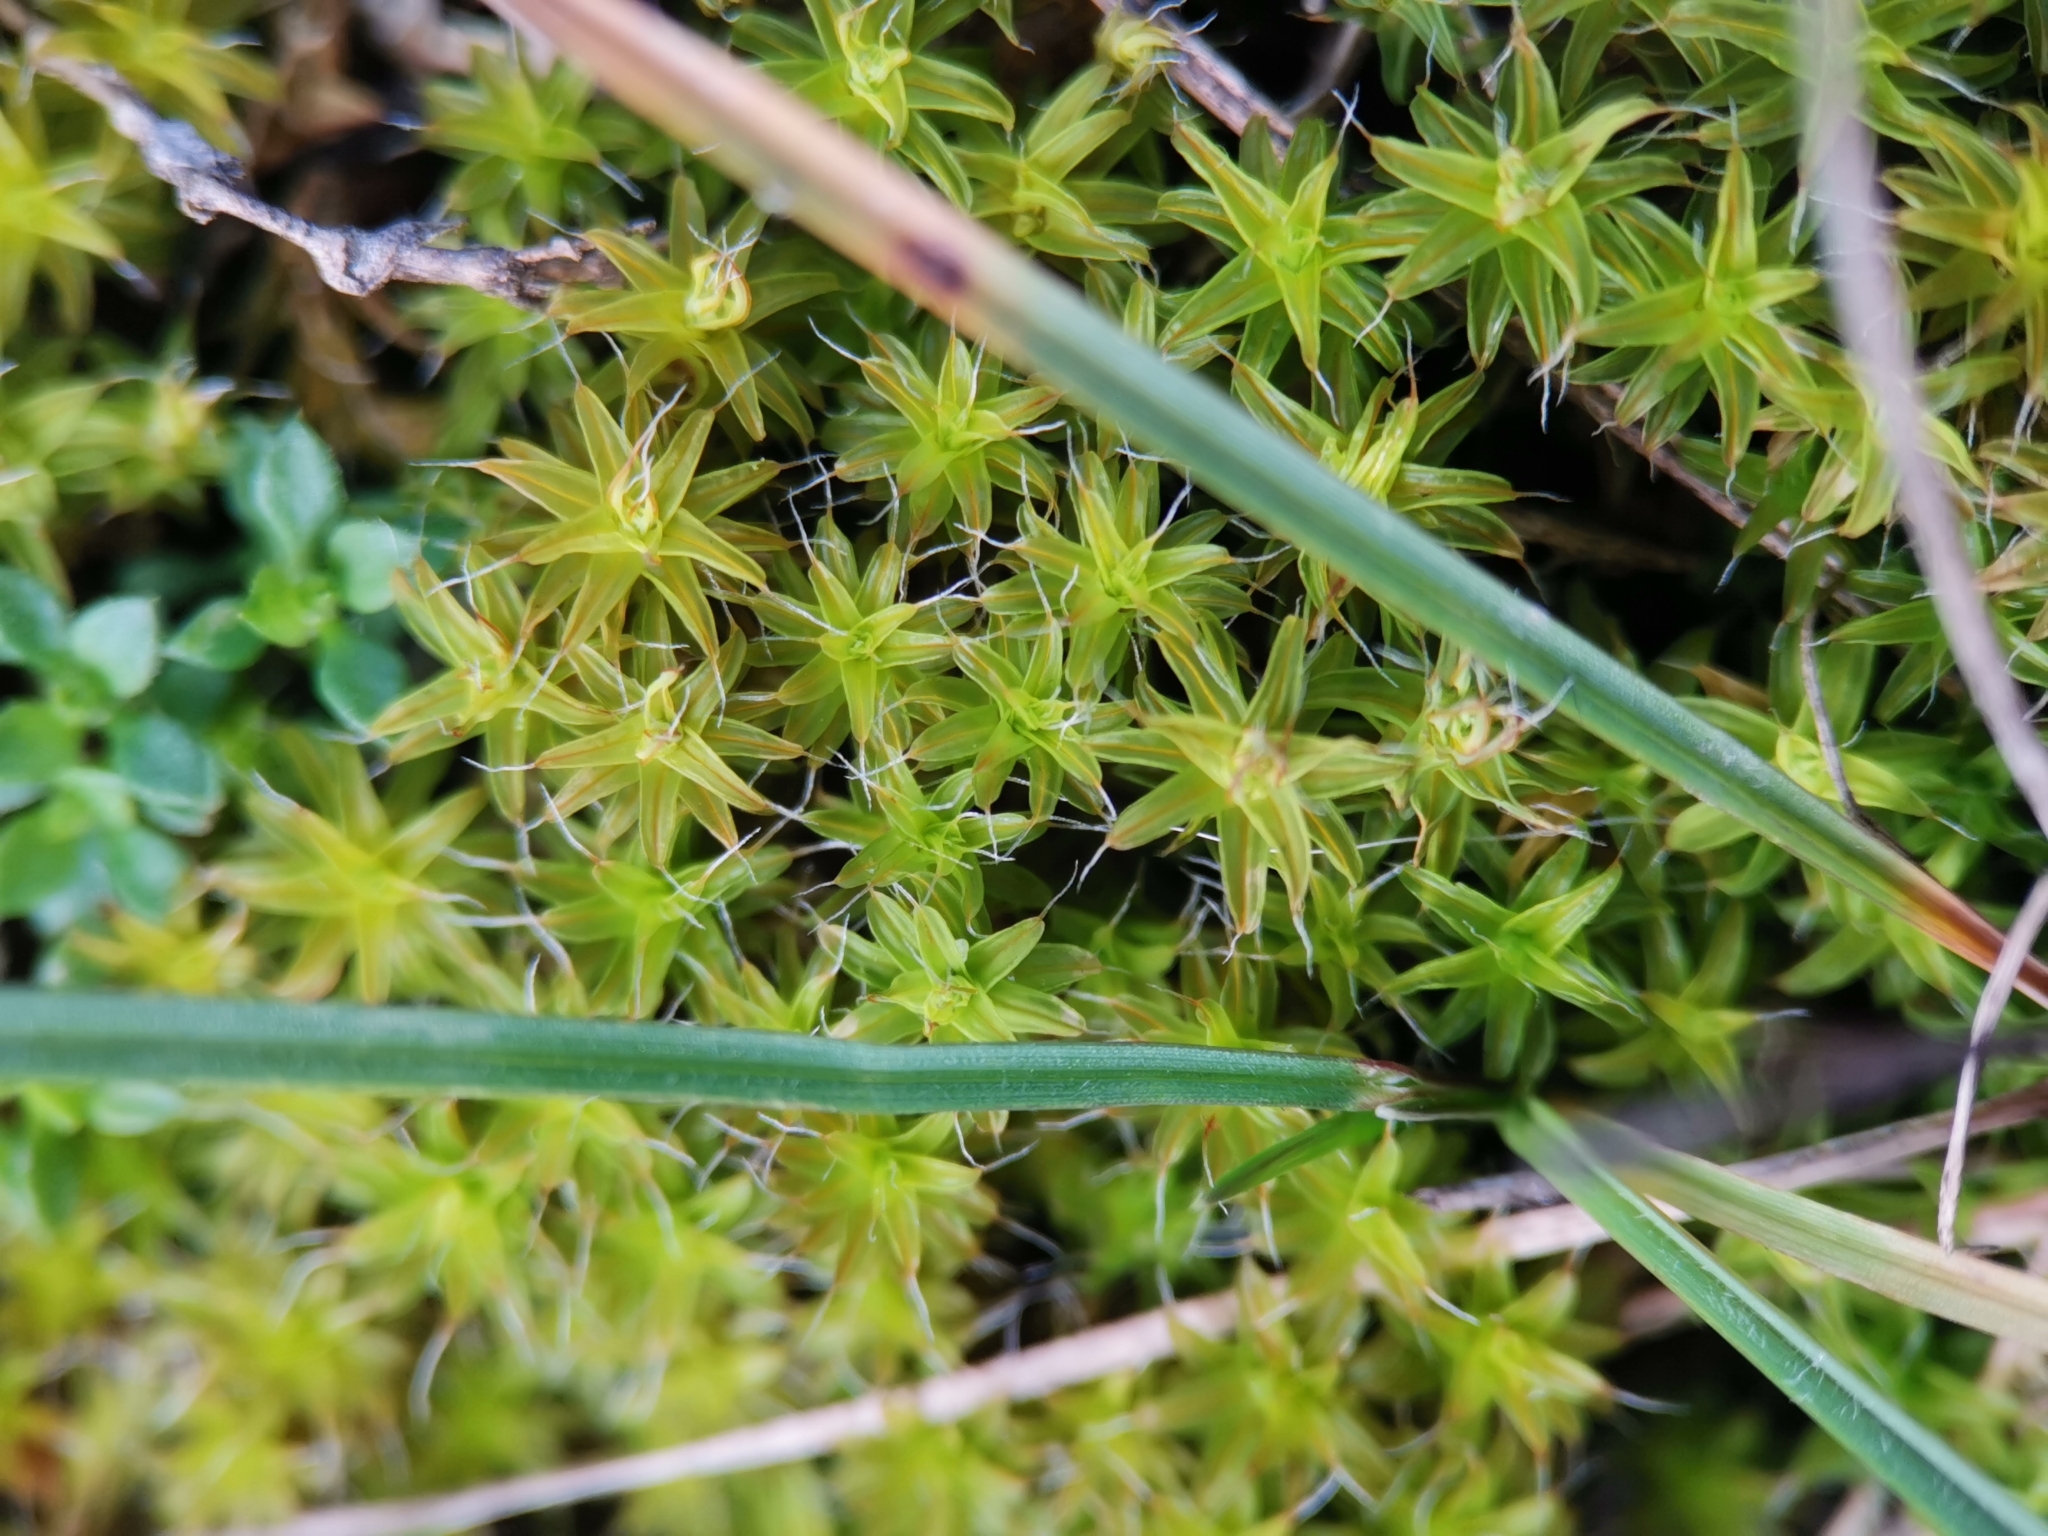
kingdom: Plantae
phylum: Bryophyta
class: Bryopsida
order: Pottiales
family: Pottiaceae
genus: Syntrichia
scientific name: Syntrichia ruralis
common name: Sidewalk screw moss
